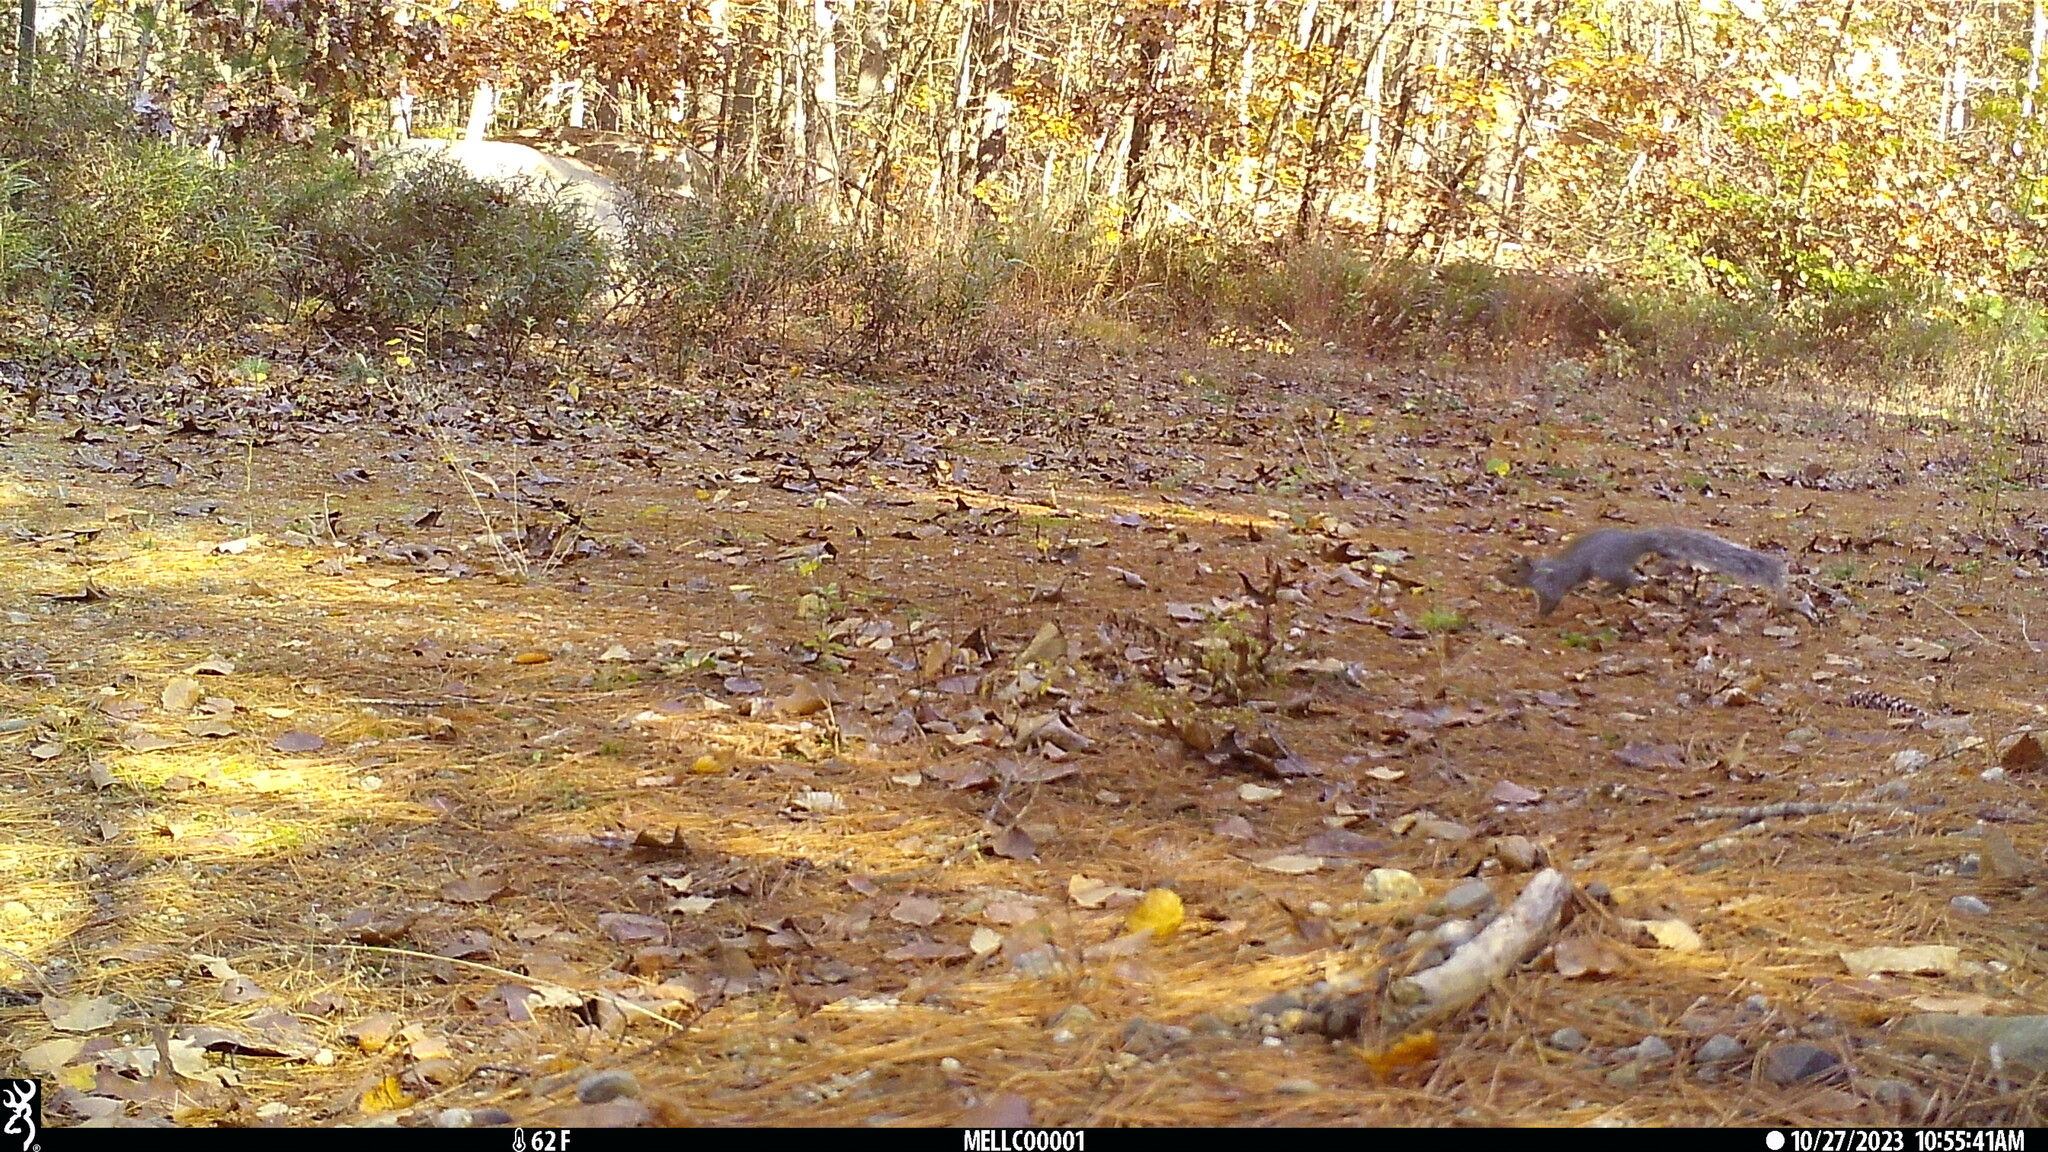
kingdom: Animalia
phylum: Chordata
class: Mammalia
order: Rodentia
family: Sciuridae
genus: Sciurus
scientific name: Sciurus carolinensis
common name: Eastern gray squirrel
